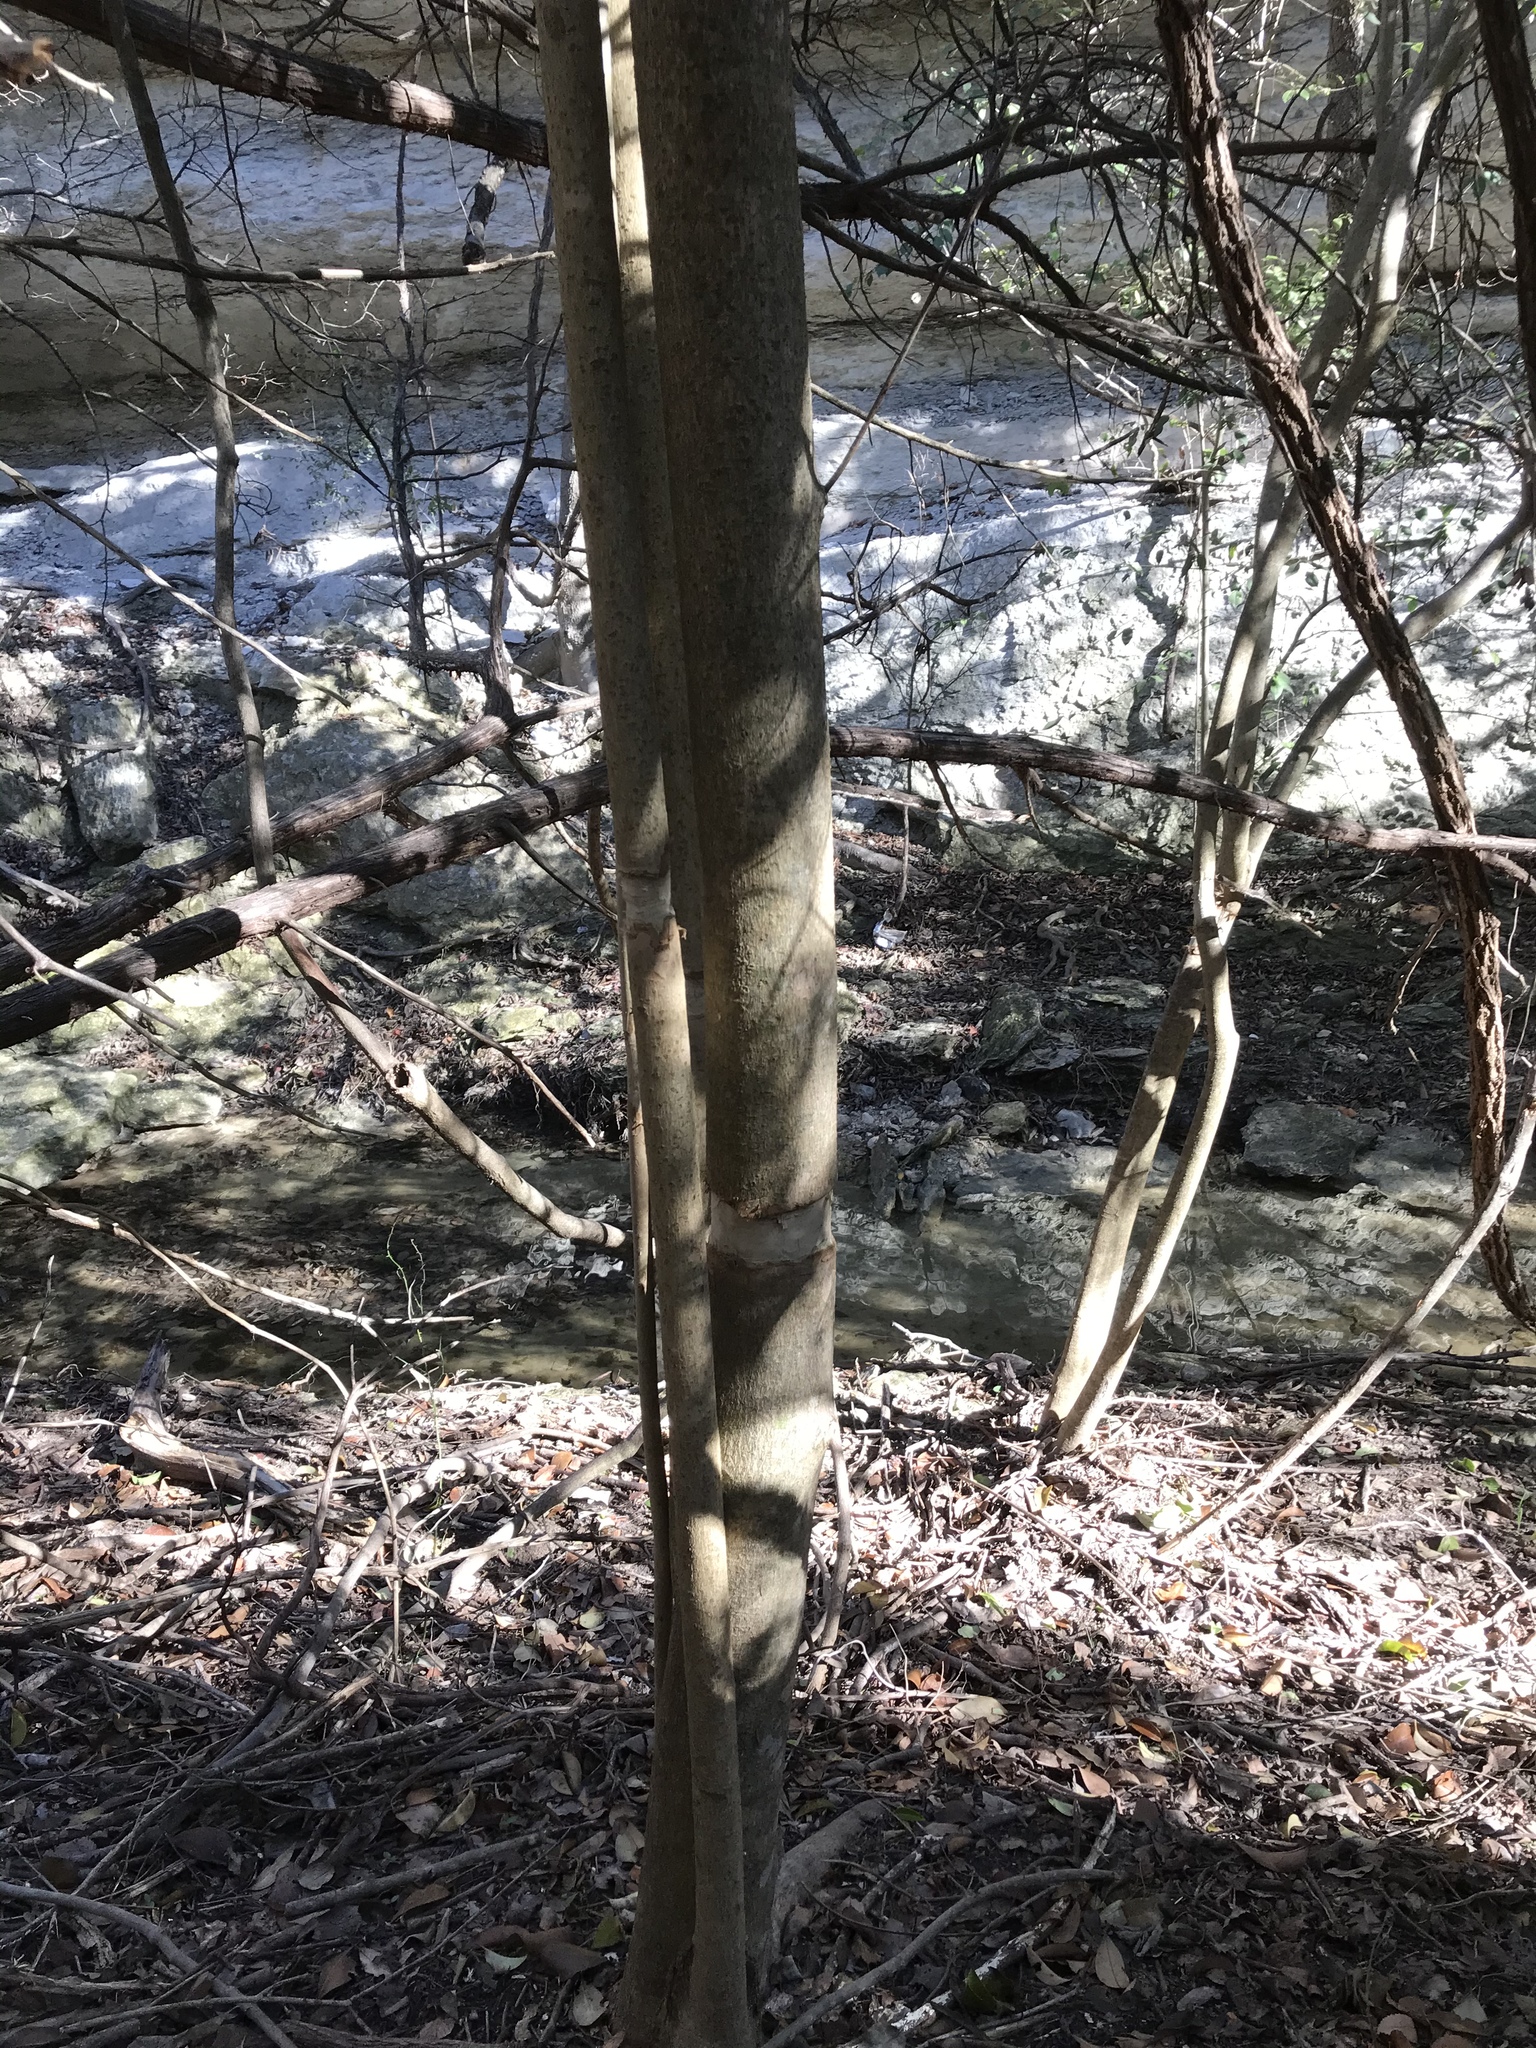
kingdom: Plantae
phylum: Tracheophyta
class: Magnoliopsida
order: Lamiales
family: Oleaceae
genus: Ligustrum
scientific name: Ligustrum lucidum
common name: Glossy privet
